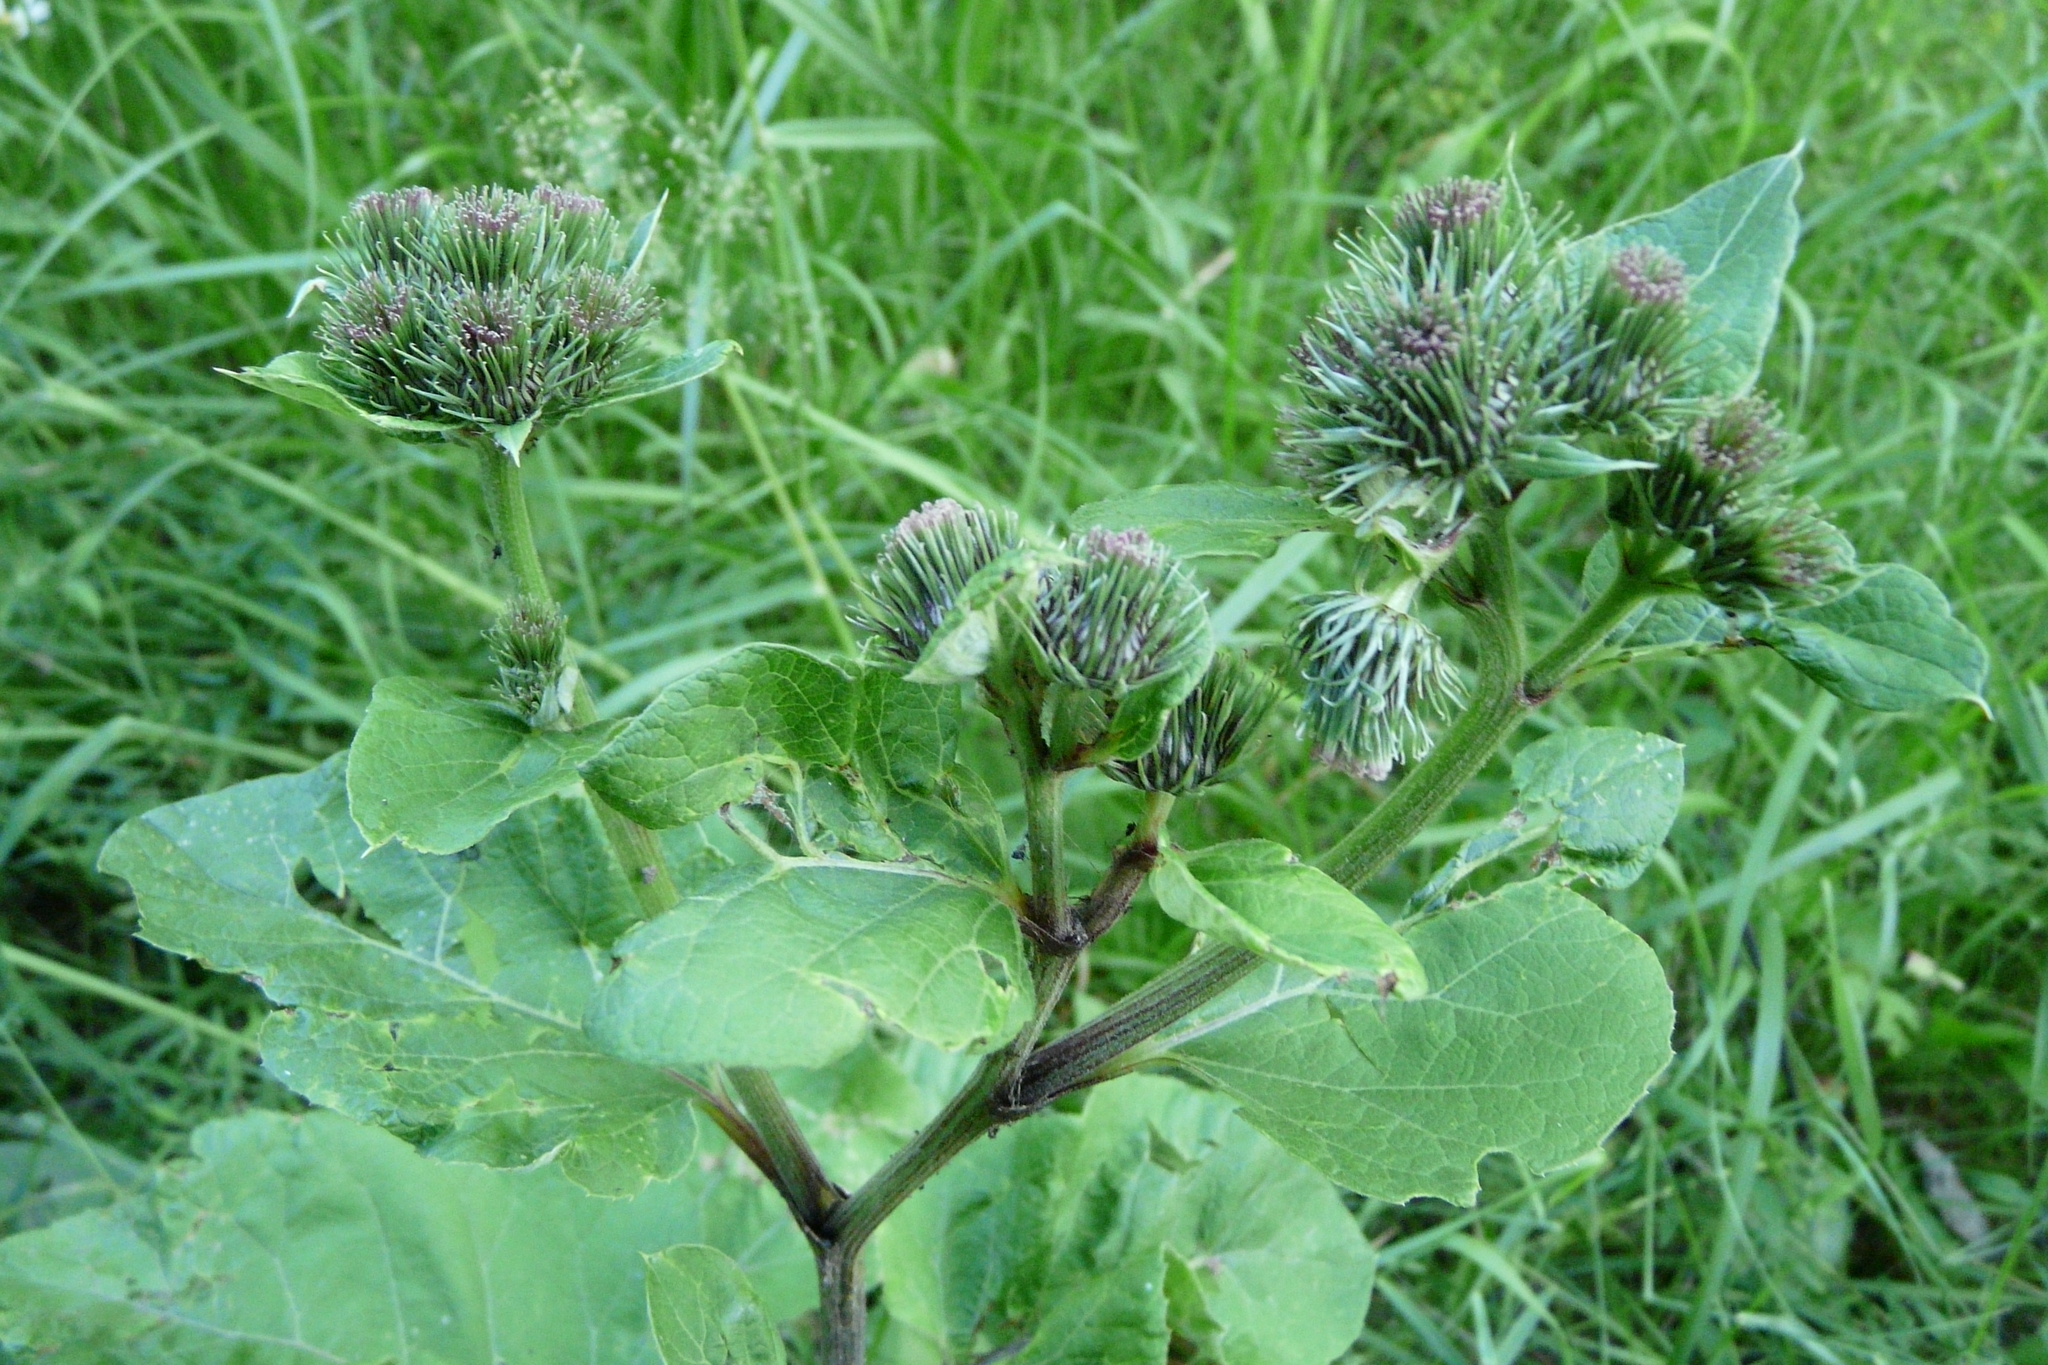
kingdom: Plantae
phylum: Tracheophyta
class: Magnoliopsida
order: Asterales
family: Asteraceae
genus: Arctium
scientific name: Arctium lappa
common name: Greater burdock
